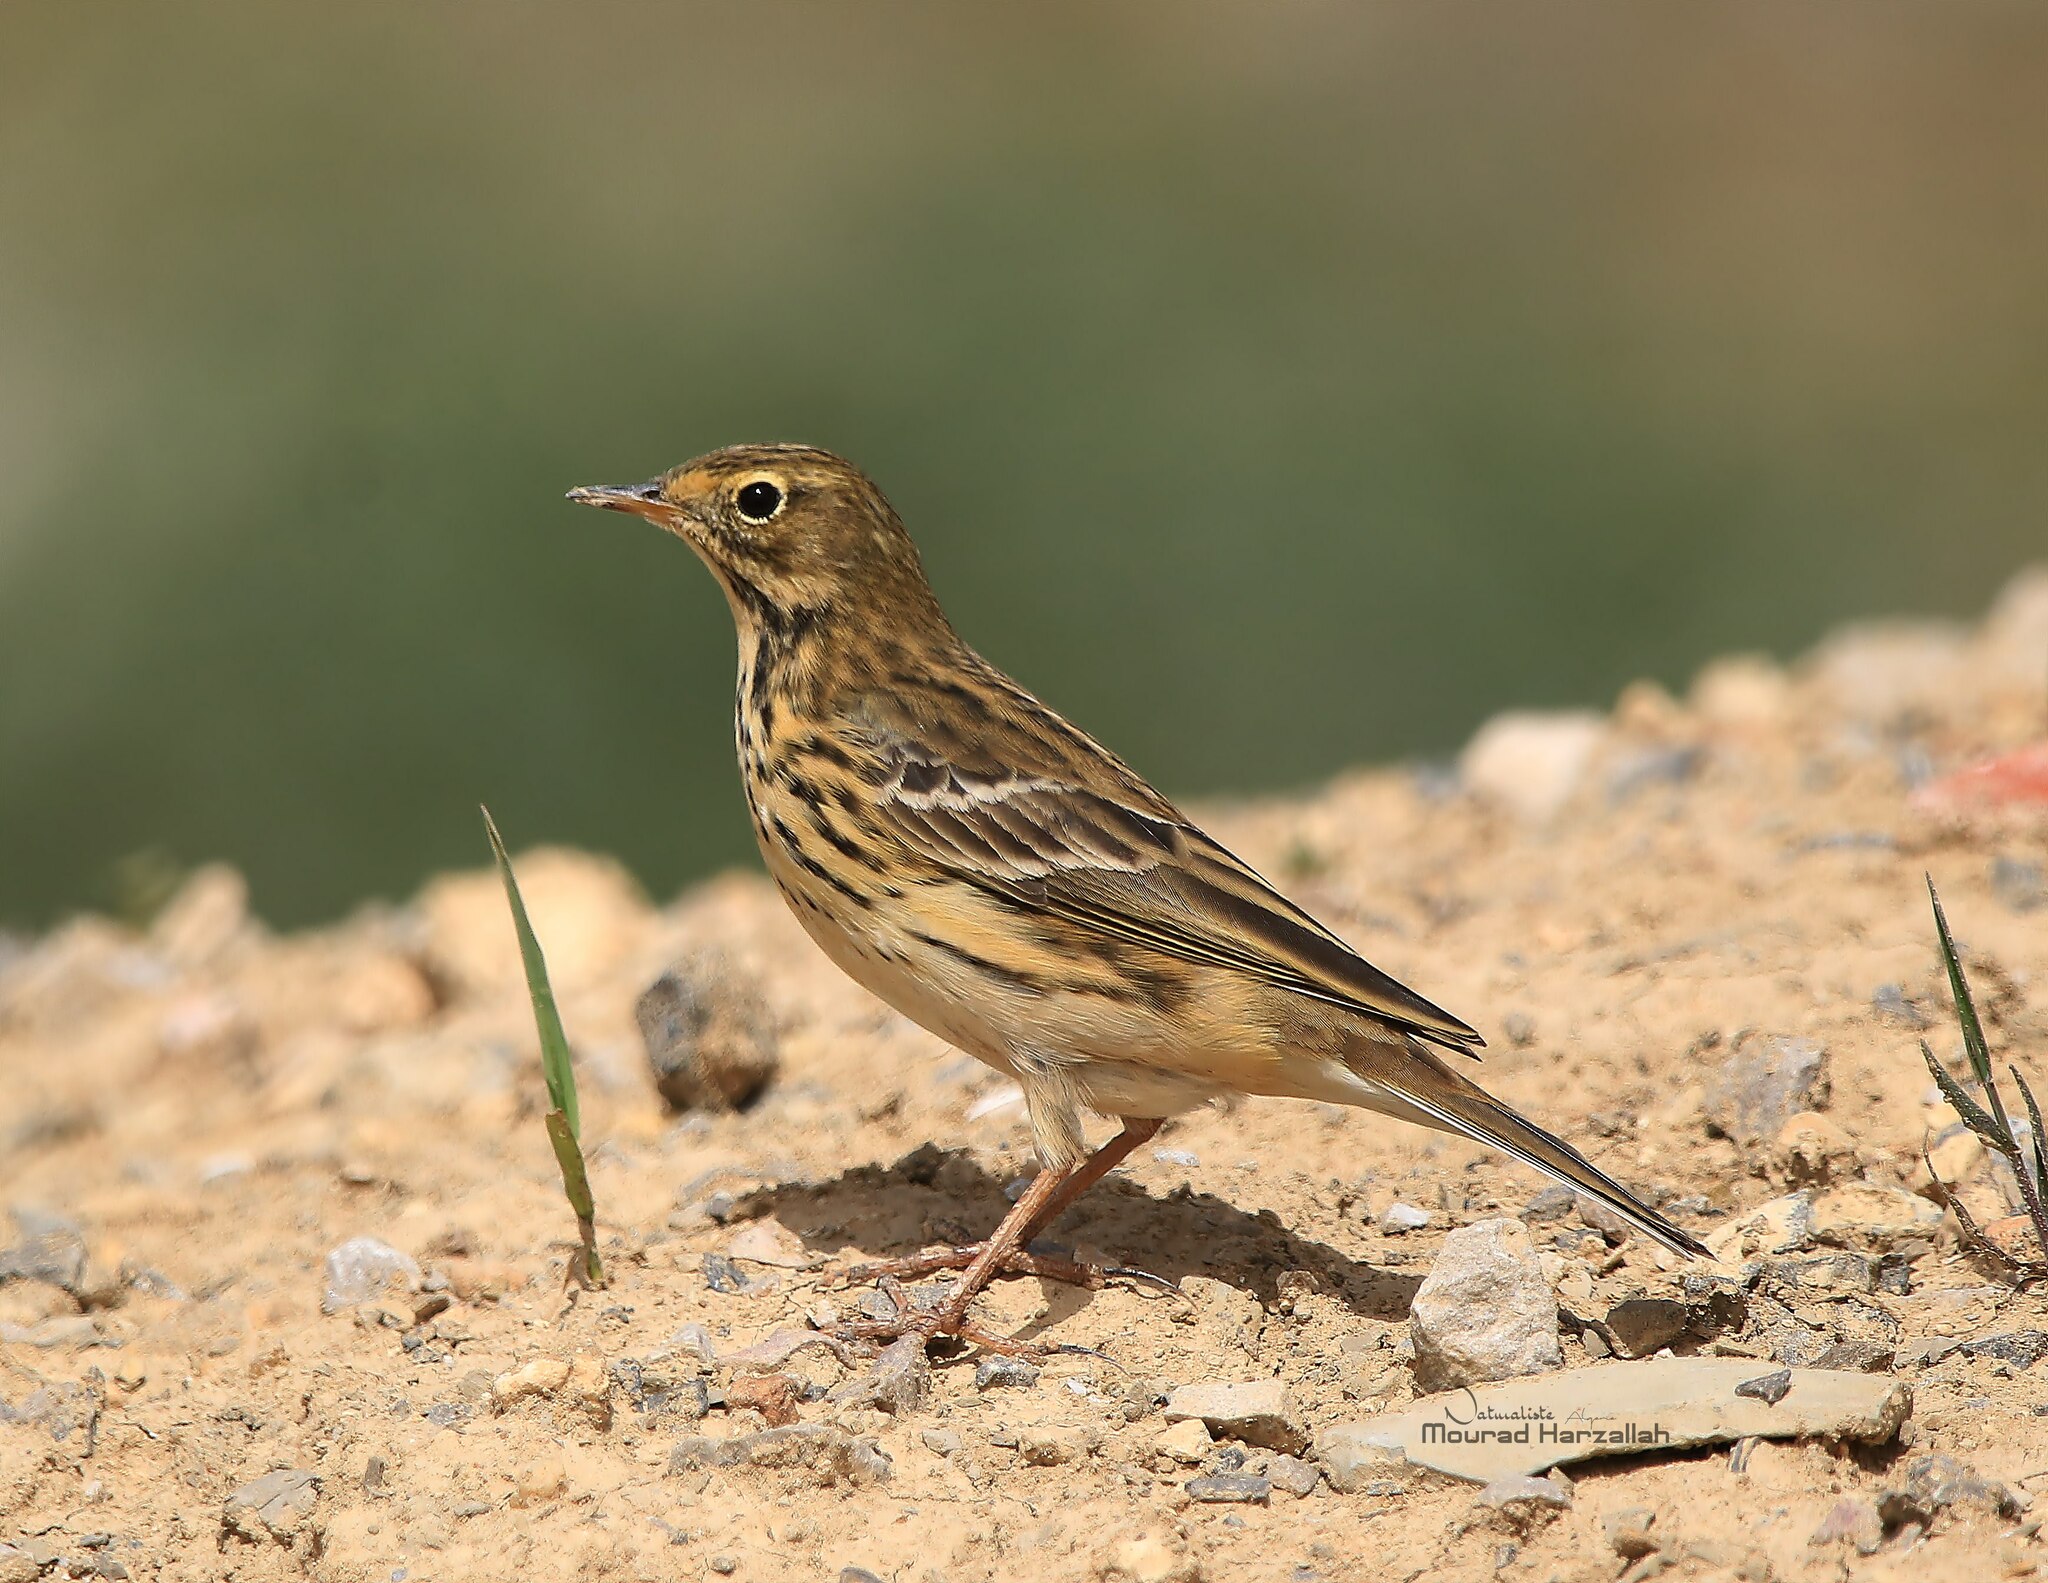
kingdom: Animalia
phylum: Chordata
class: Aves
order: Passeriformes
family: Motacillidae
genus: Anthus
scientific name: Anthus pratensis
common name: Meadow pipit
